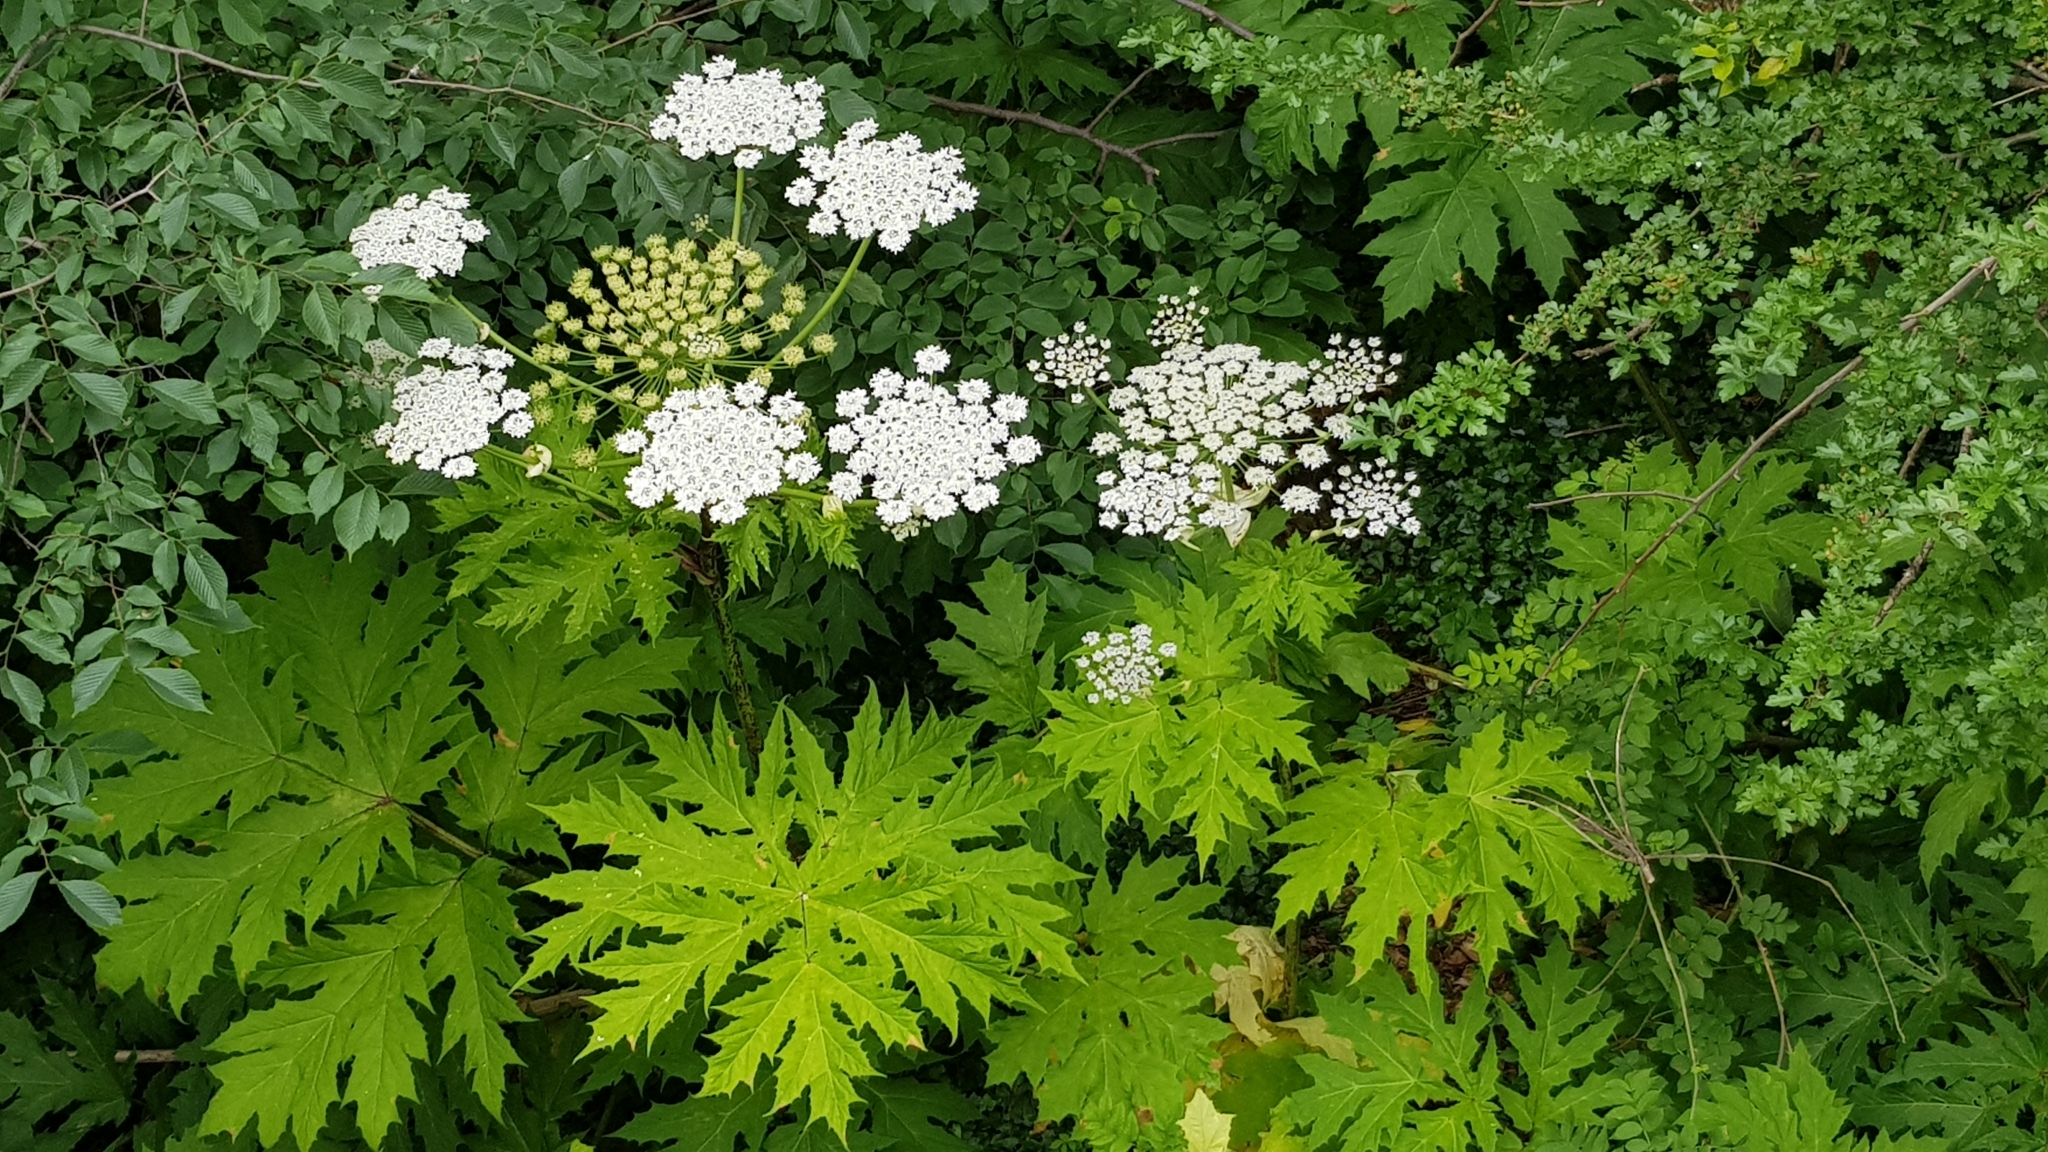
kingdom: Plantae
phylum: Tracheophyta
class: Magnoliopsida
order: Apiales
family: Apiaceae
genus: Heracleum
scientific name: Heracleum mantegazzianum
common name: Giant hogweed
